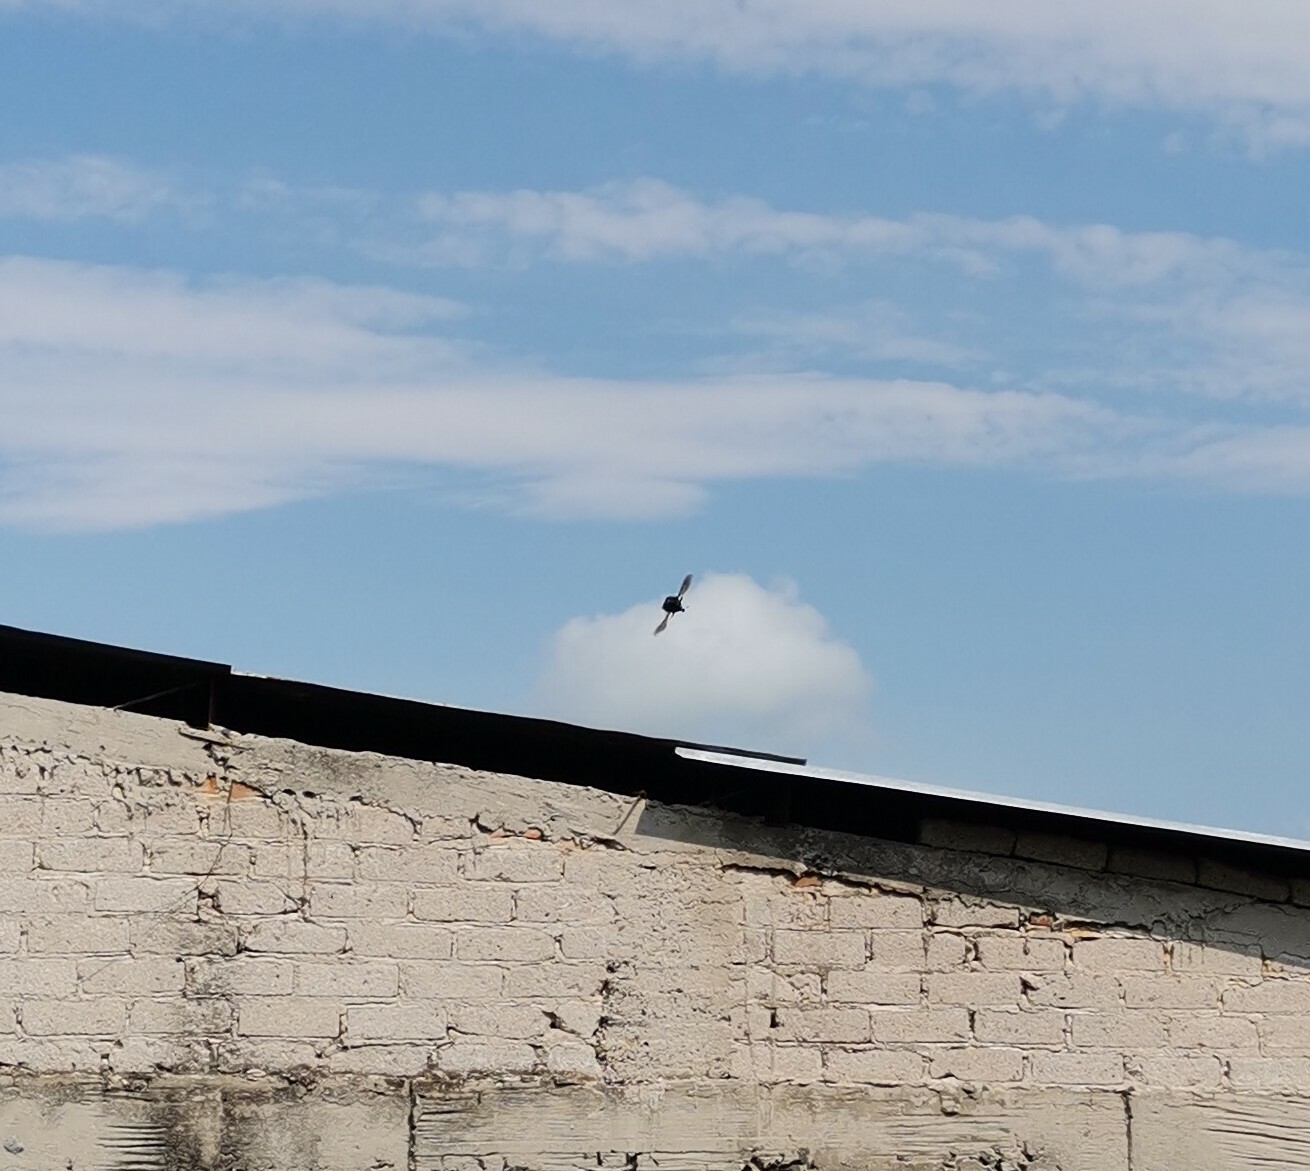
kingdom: Animalia
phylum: Arthropoda
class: Insecta
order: Coleoptera
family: Scarabaeidae
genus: Cotinis
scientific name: Cotinis mutabilis
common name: Figeater beetle
